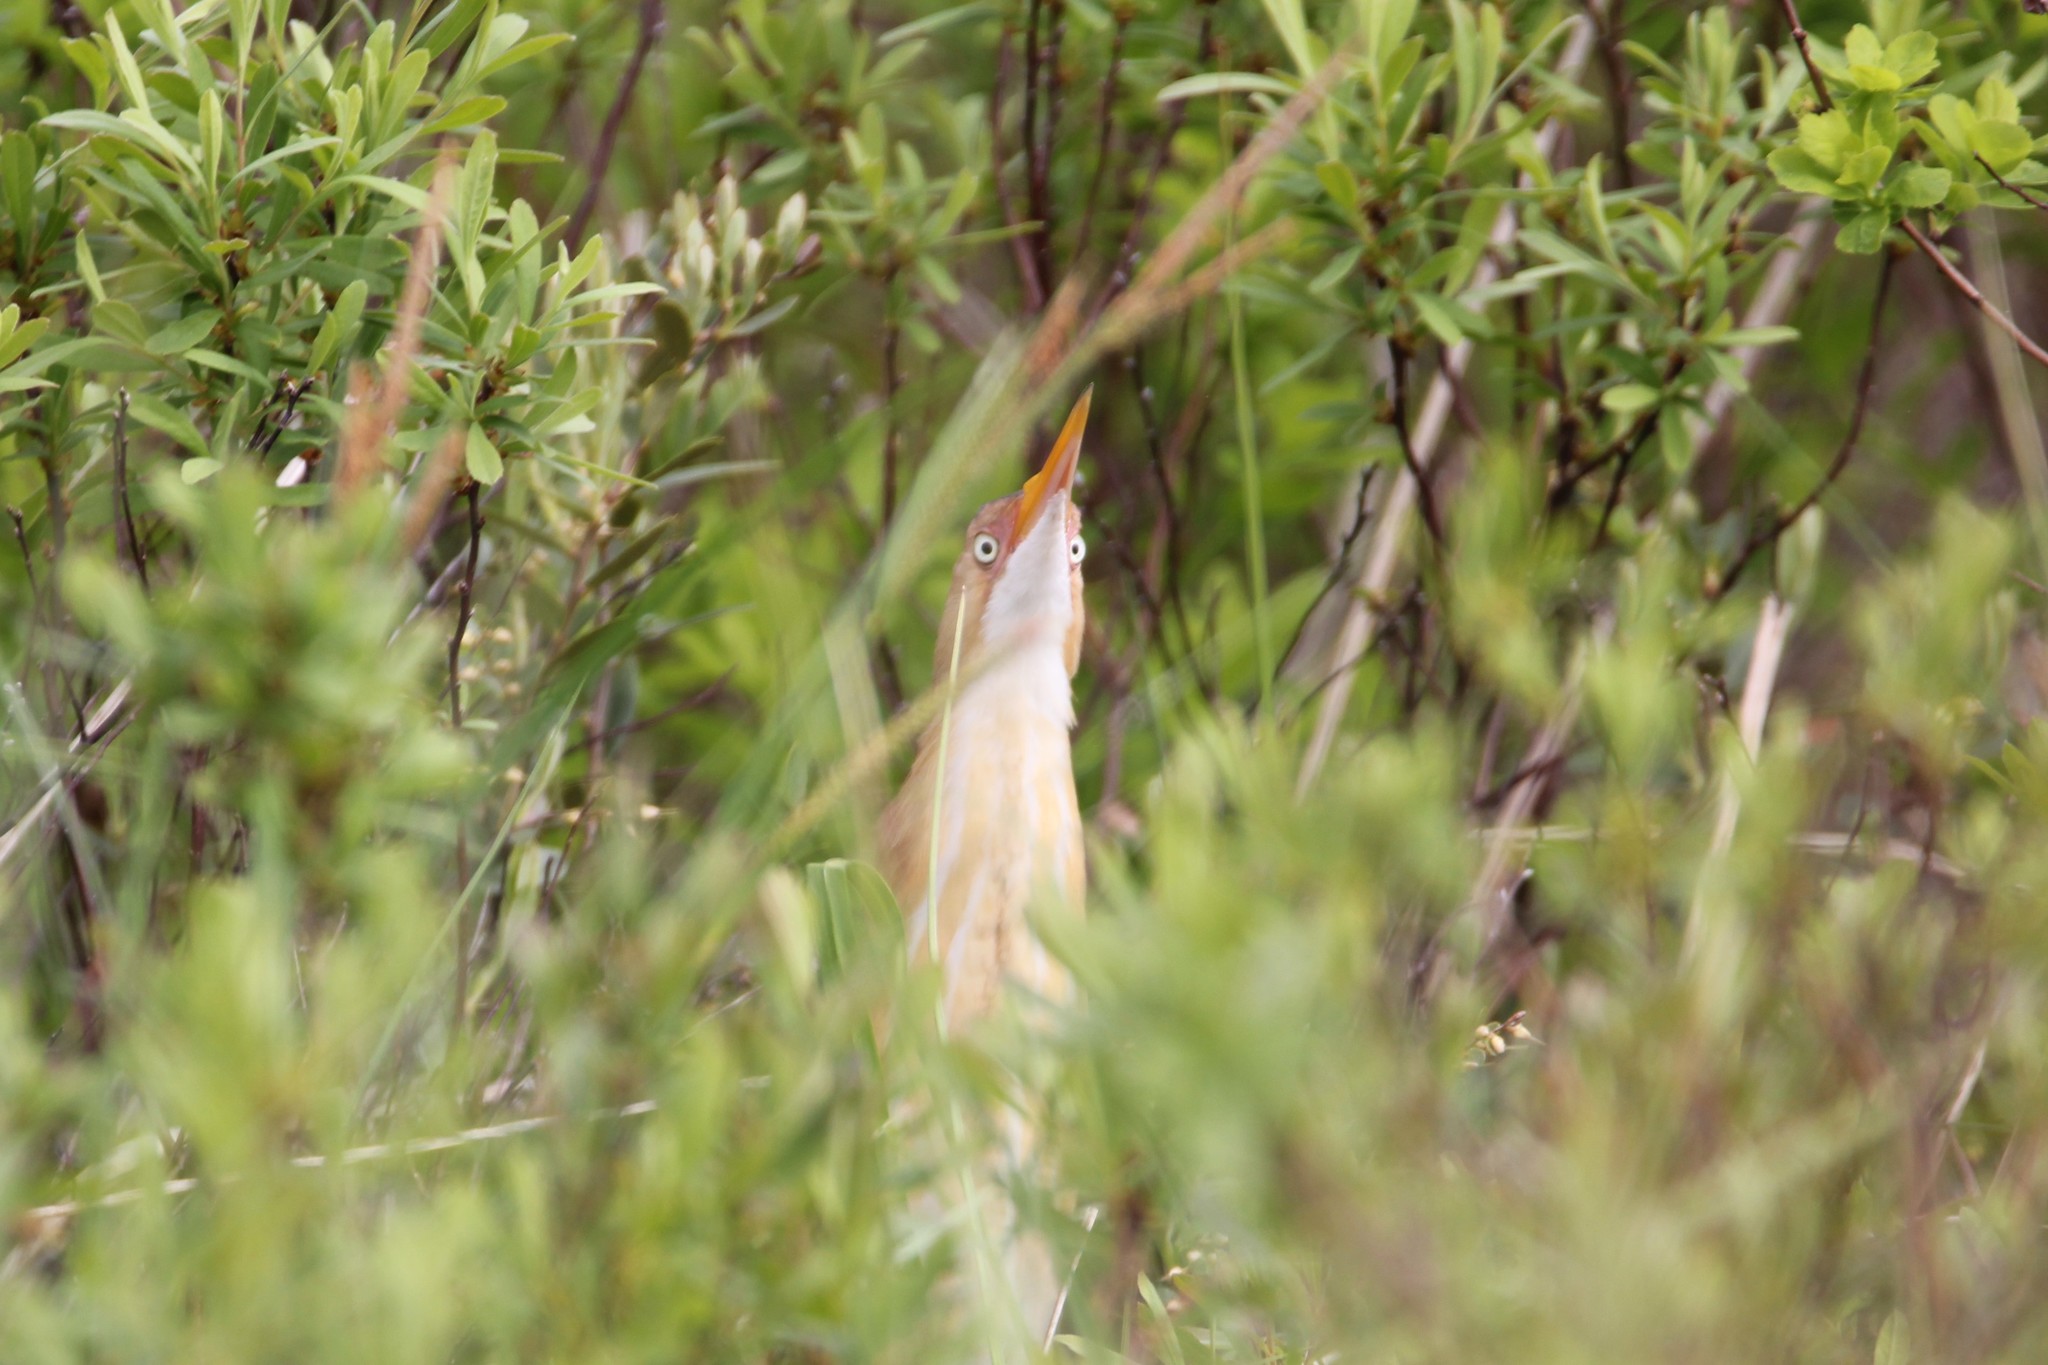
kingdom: Animalia
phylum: Chordata
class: Aves
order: Pelecaniformes
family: Ardeidae
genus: Ixobrychus
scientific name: Ixobrychus exilis
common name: Least bittern
